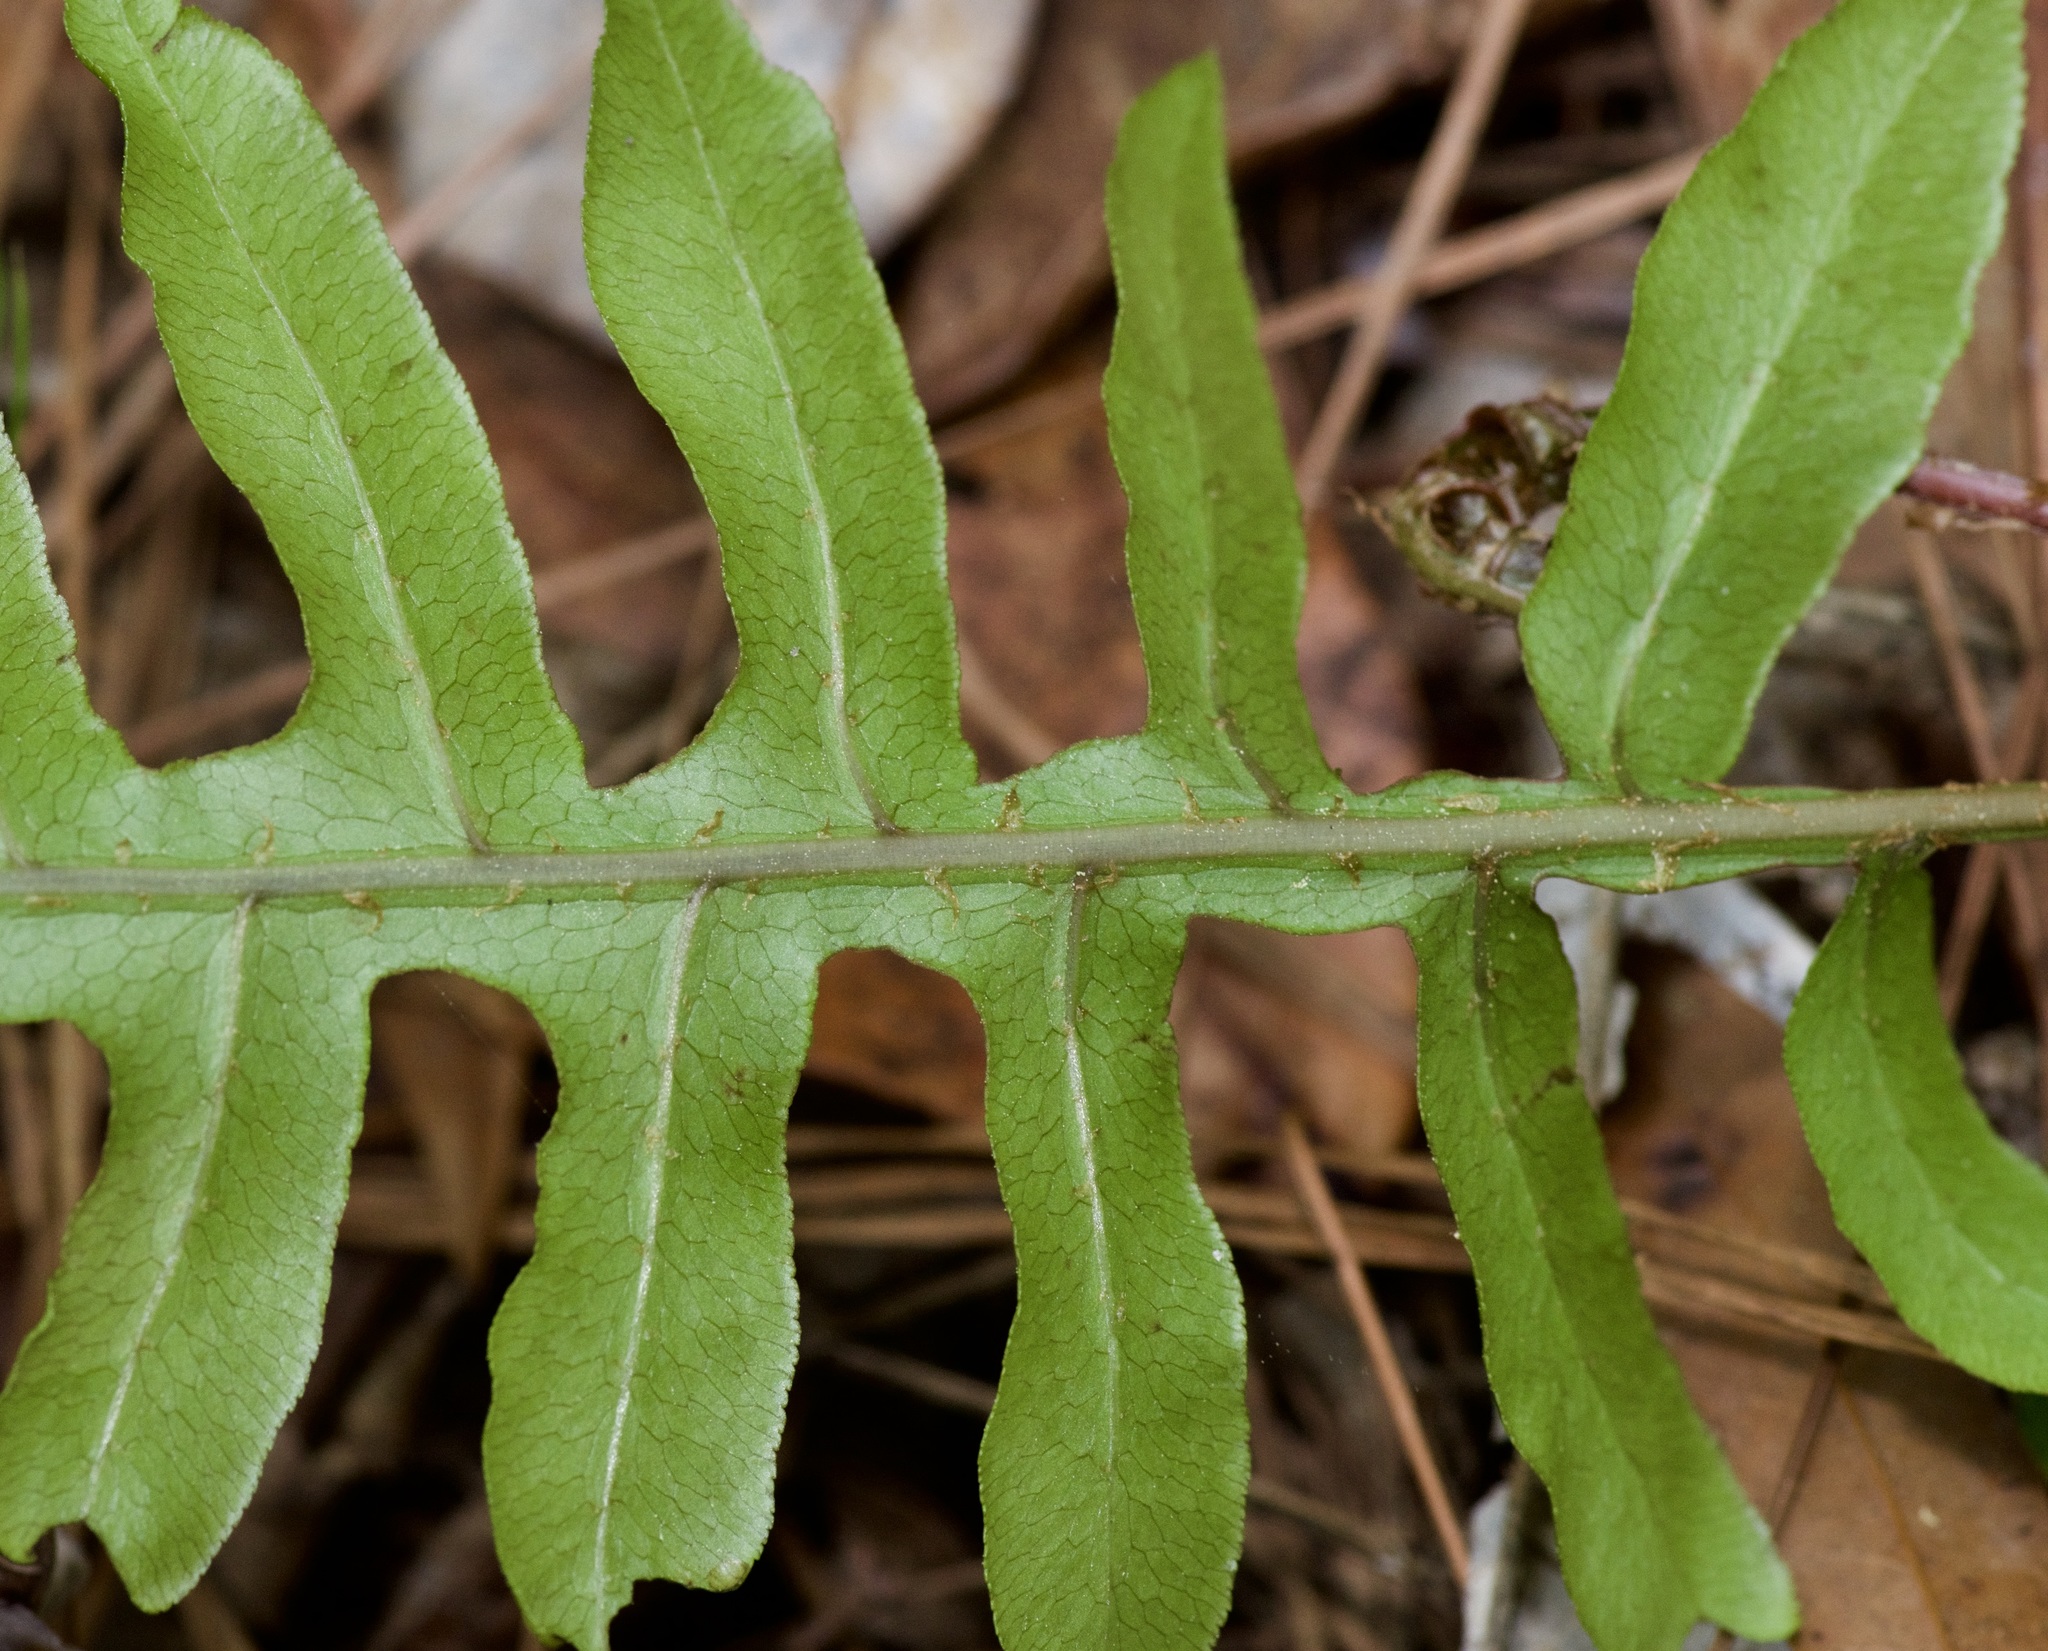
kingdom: Plantae
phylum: Tracheophyta
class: Polypodiopsida
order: Polypodiales
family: Blechnaceae
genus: Lorinseria
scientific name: Lorinseria areolata
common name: Dwarf chain fern
